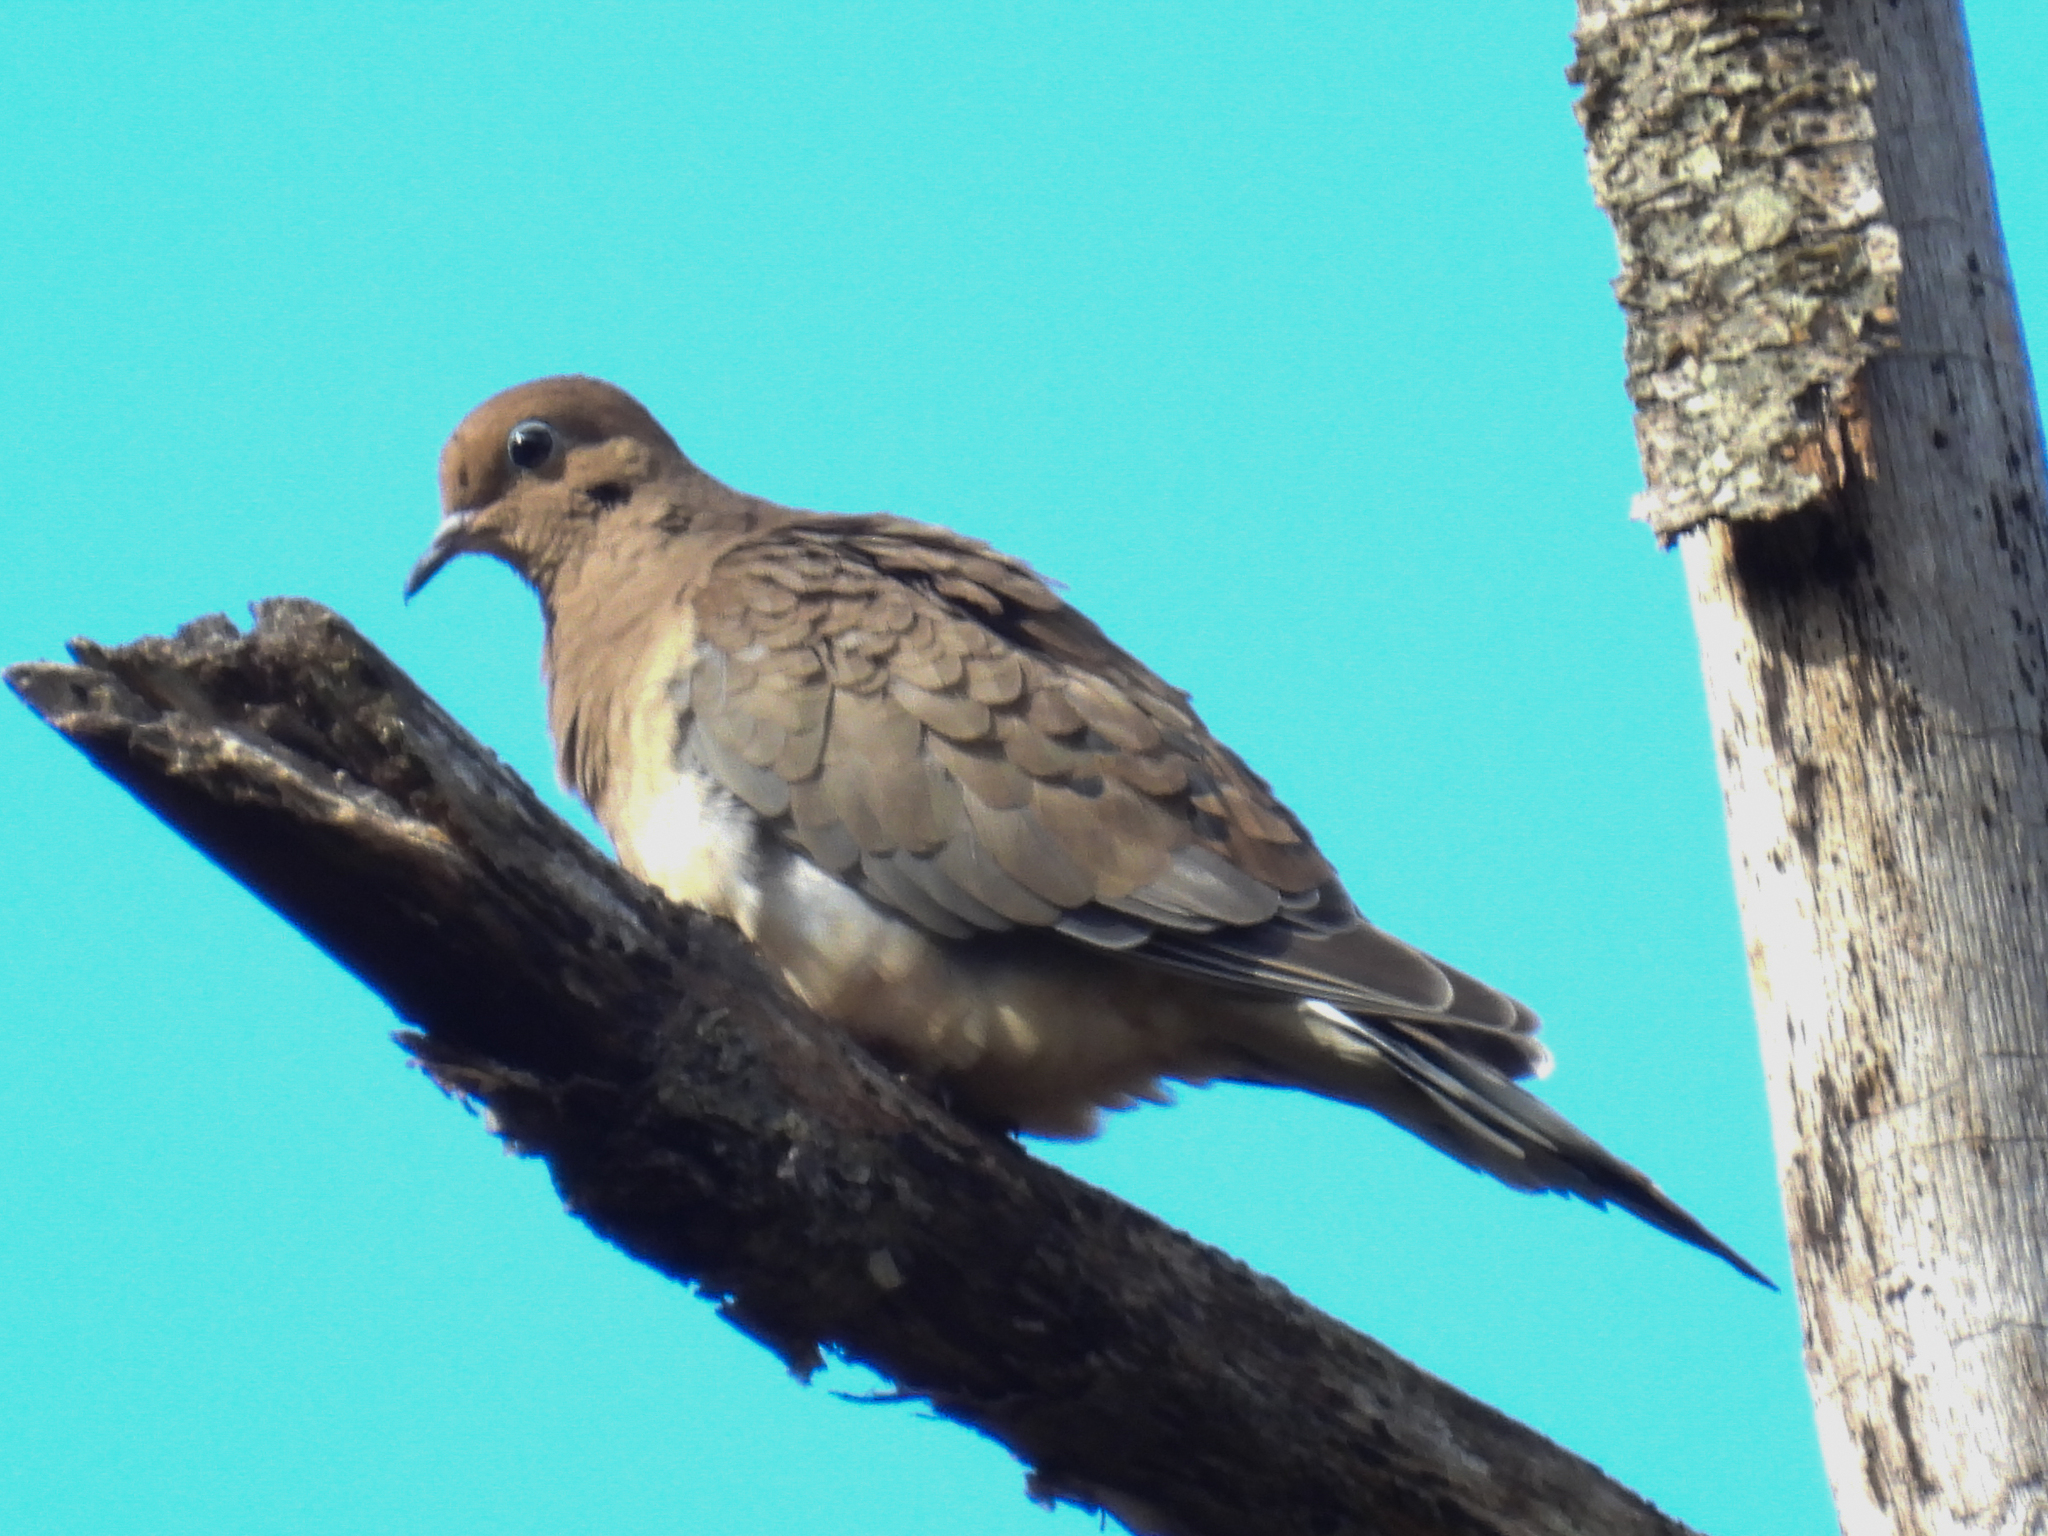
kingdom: Animalia
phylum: Chordata
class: Aves
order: Columbiformes
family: Columbidae
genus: Zenaida
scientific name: Zenaida macroura
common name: Mourning dove
